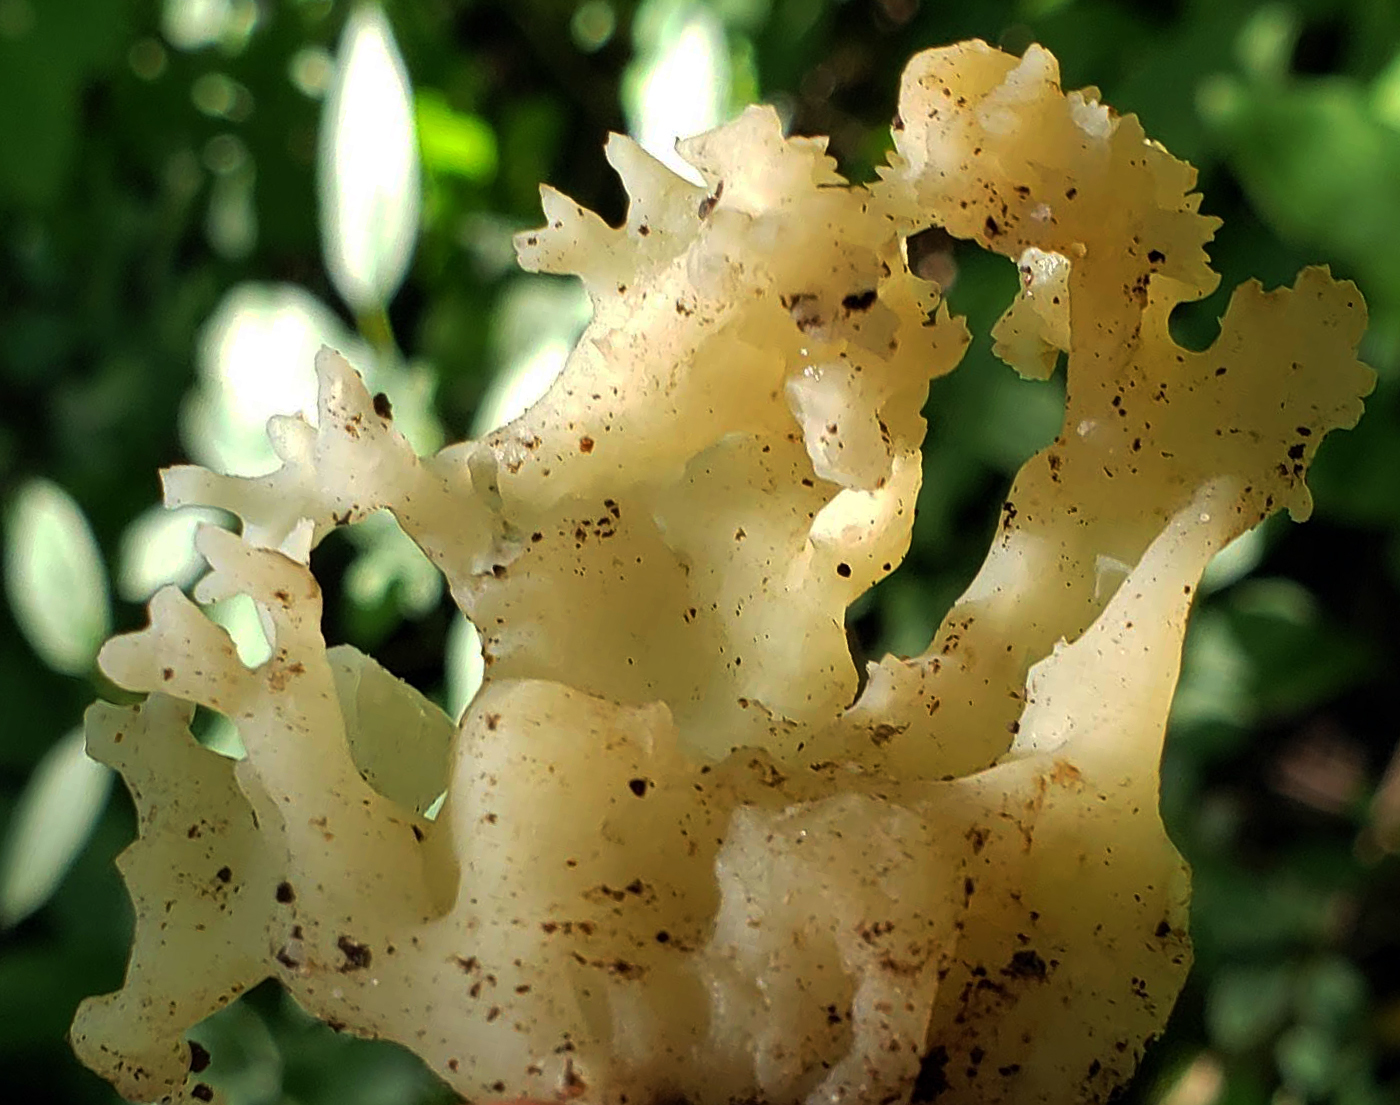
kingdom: Fungi
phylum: Basidiomycota
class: Agaricomycetes
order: Sebacinales
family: Sebacinaceae
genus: Sebacina
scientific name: Sebacina sparassoidea
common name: White coral jelly fungus
